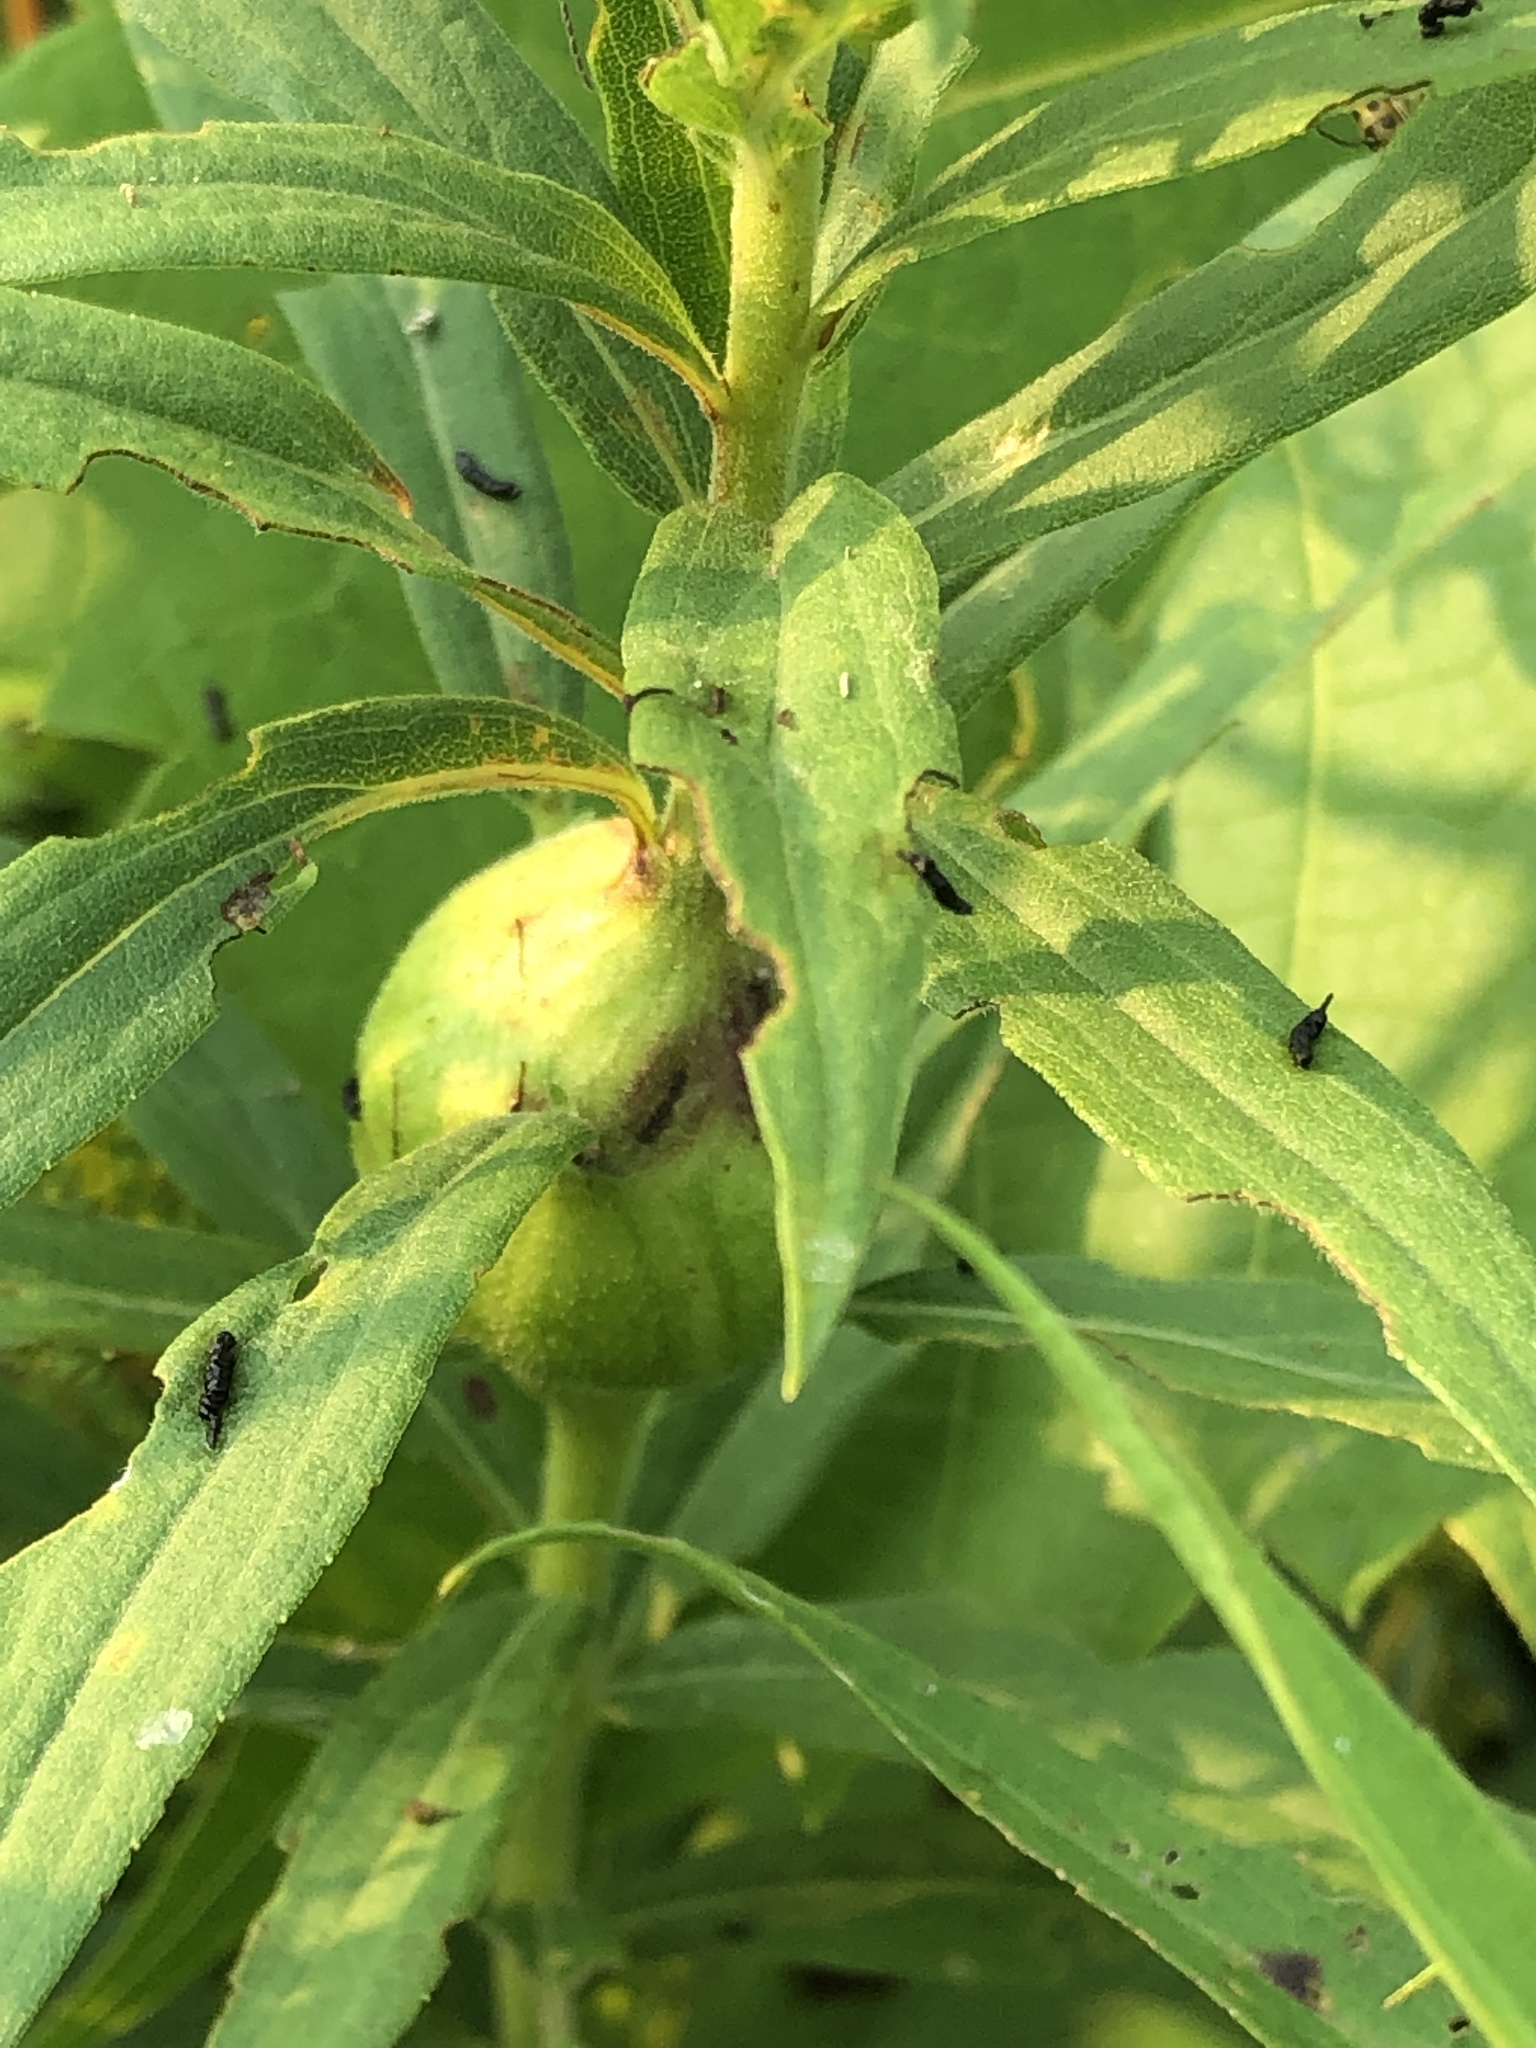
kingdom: Animalia
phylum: Arthropoda
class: Insecta
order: Diptera
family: Tephritidae
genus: Eurosta
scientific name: Eurosta solidaginis
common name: Goldenrod gall fly
